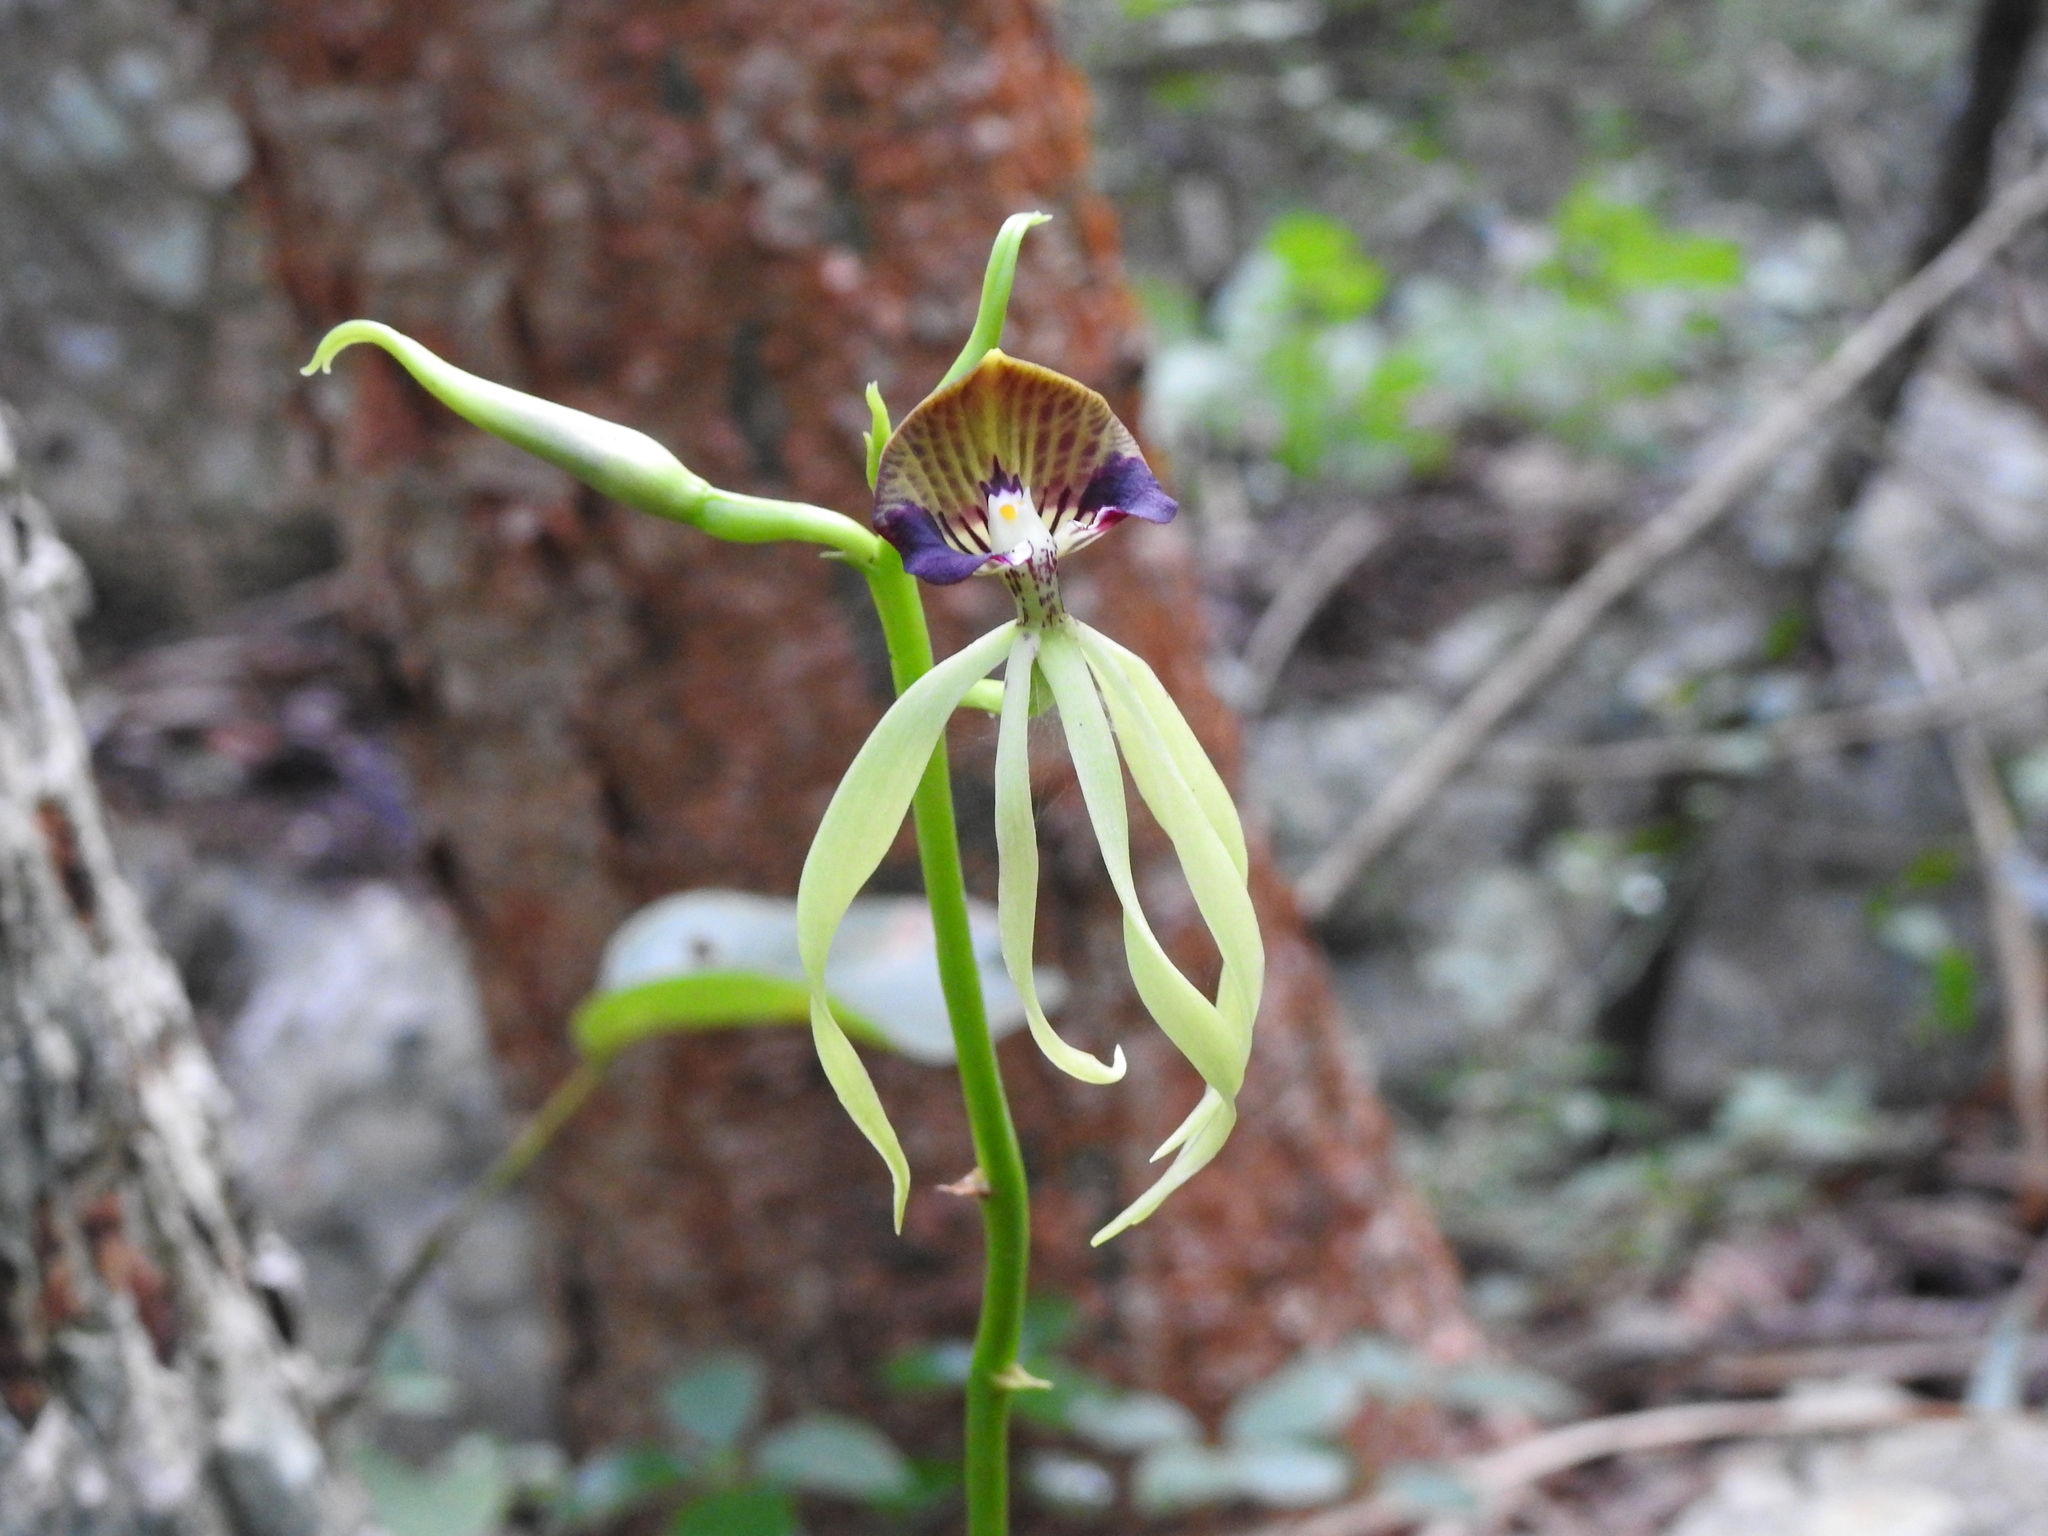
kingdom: Plantae
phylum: Tracheophyta
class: Liliopsida
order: Asparagales
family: Orchidaceae
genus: Prosthechea
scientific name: Prosthechea cochleata
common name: Clamshell orchid
